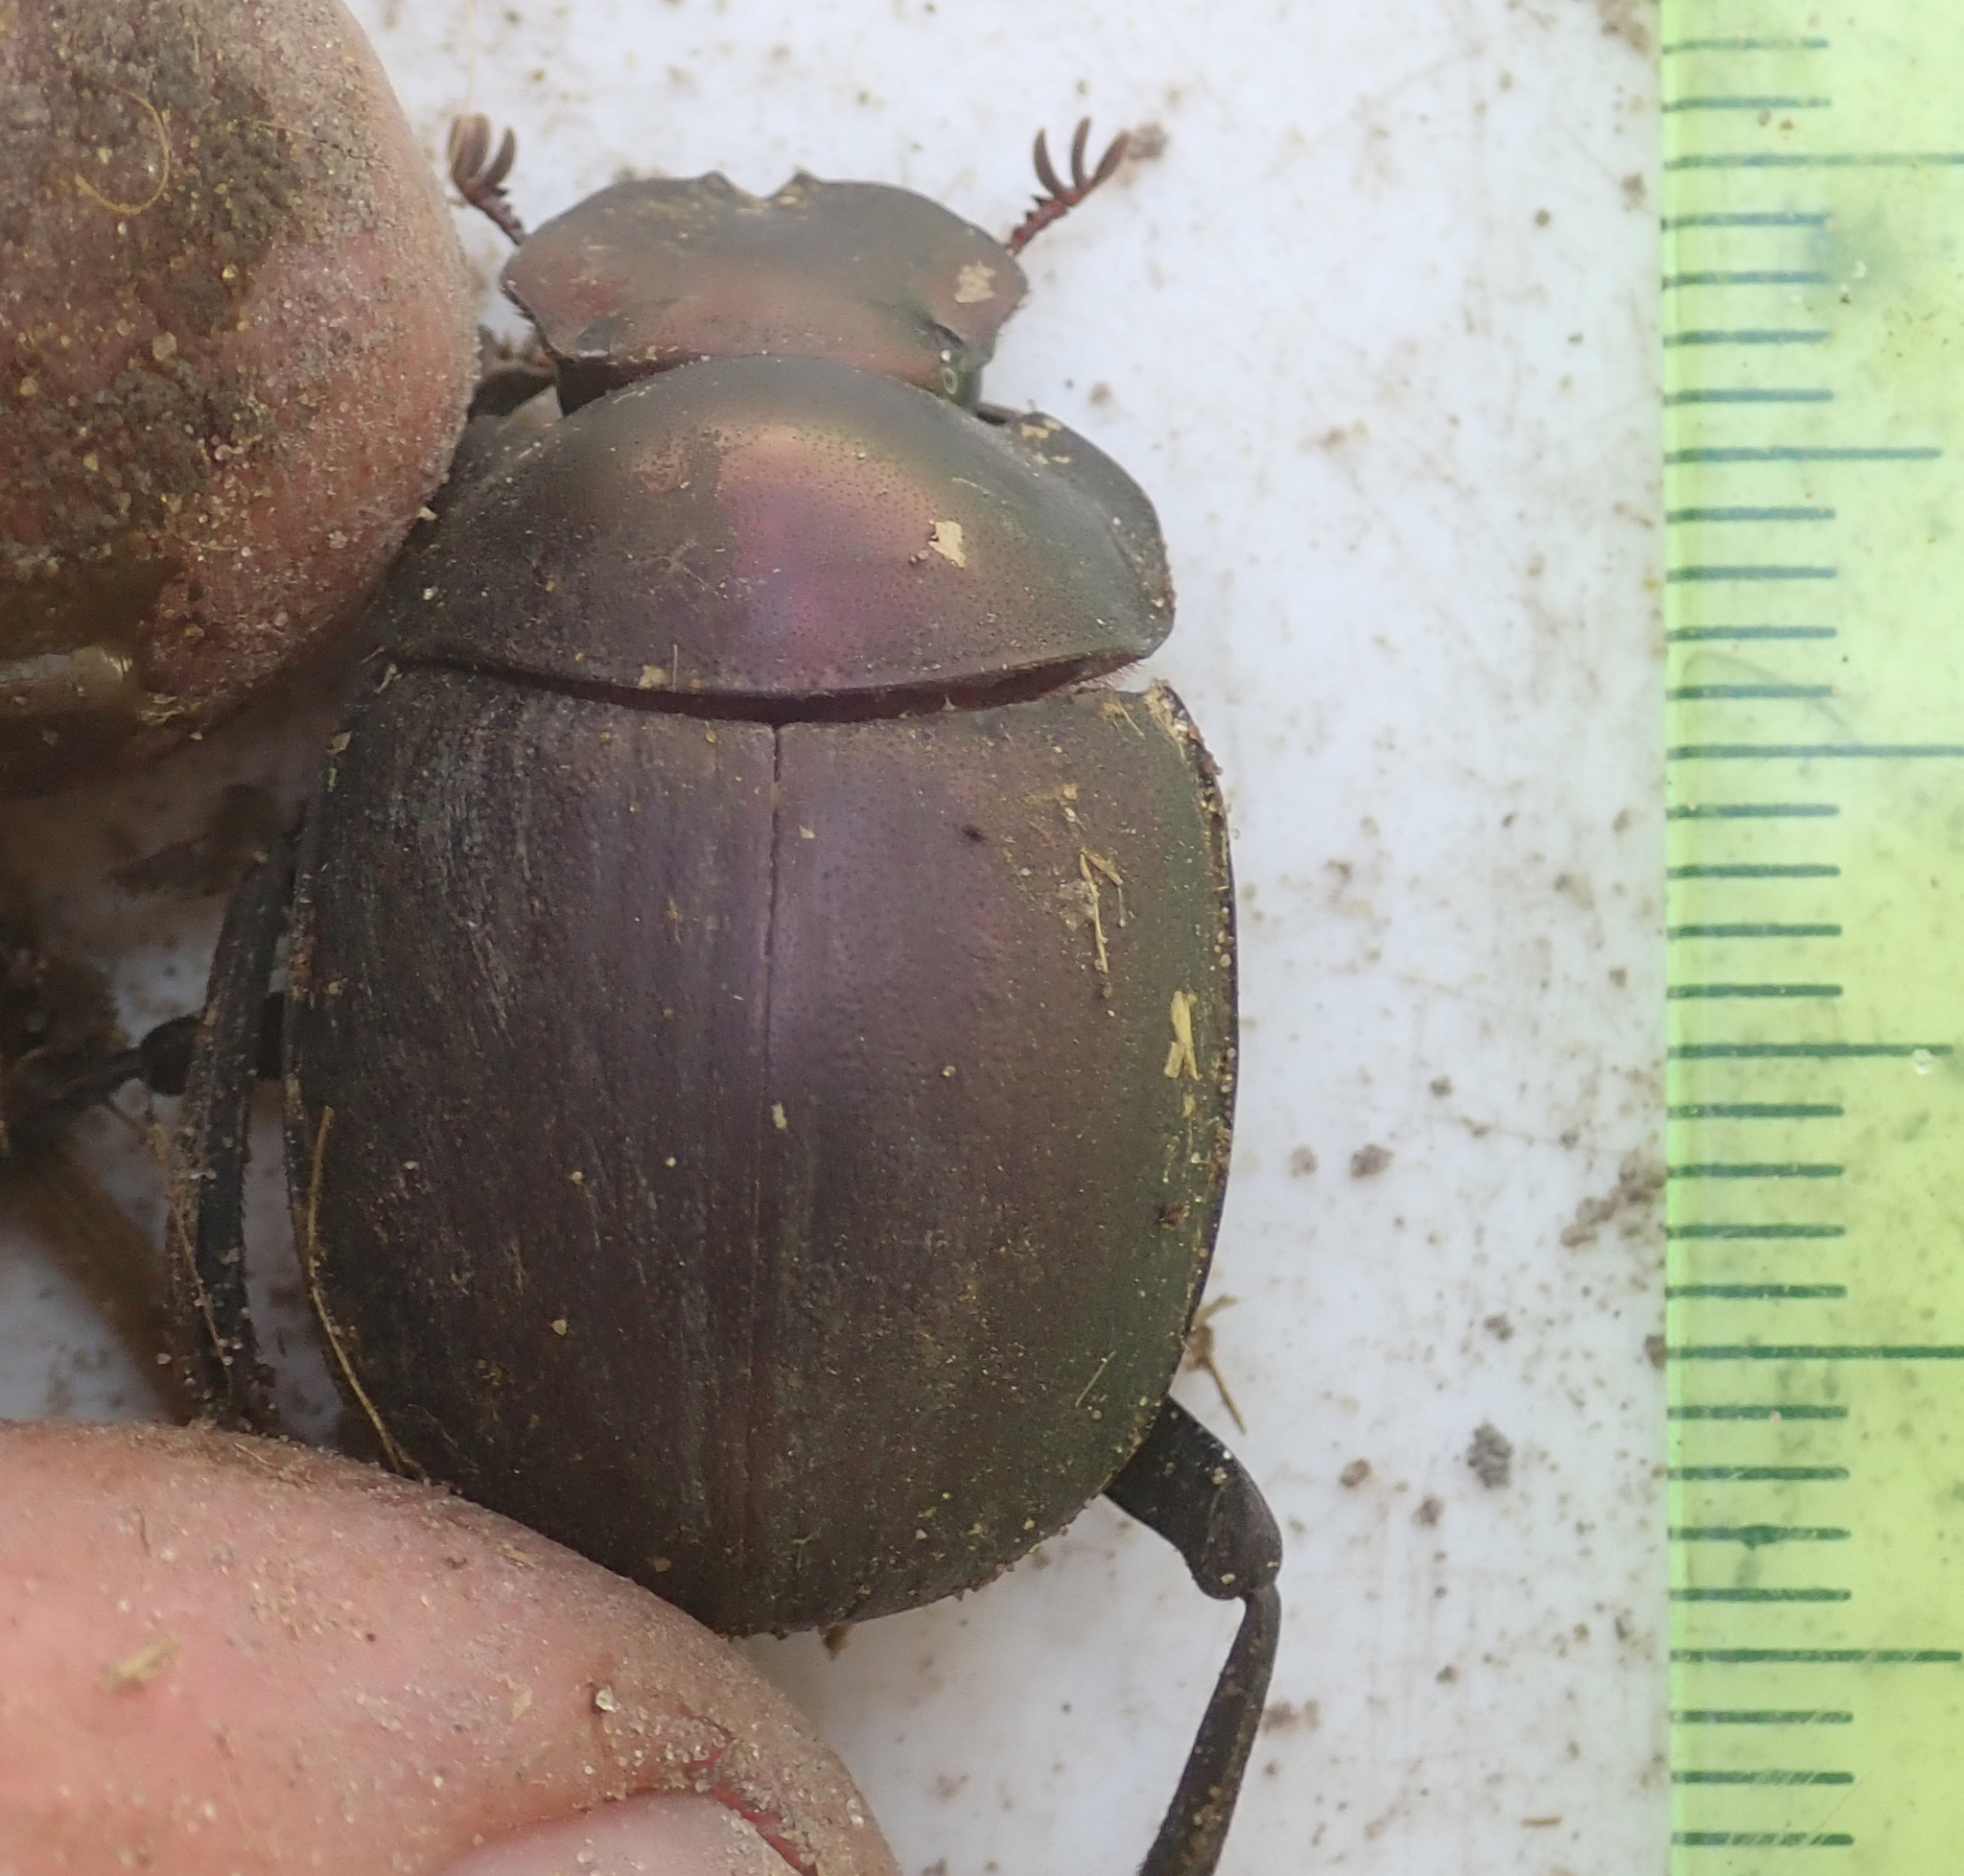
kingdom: Animalia
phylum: Arthropoda
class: Insecta
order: Coleoptera
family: Scarabaeidae
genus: Chalconotus
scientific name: Chalconotus convexus
